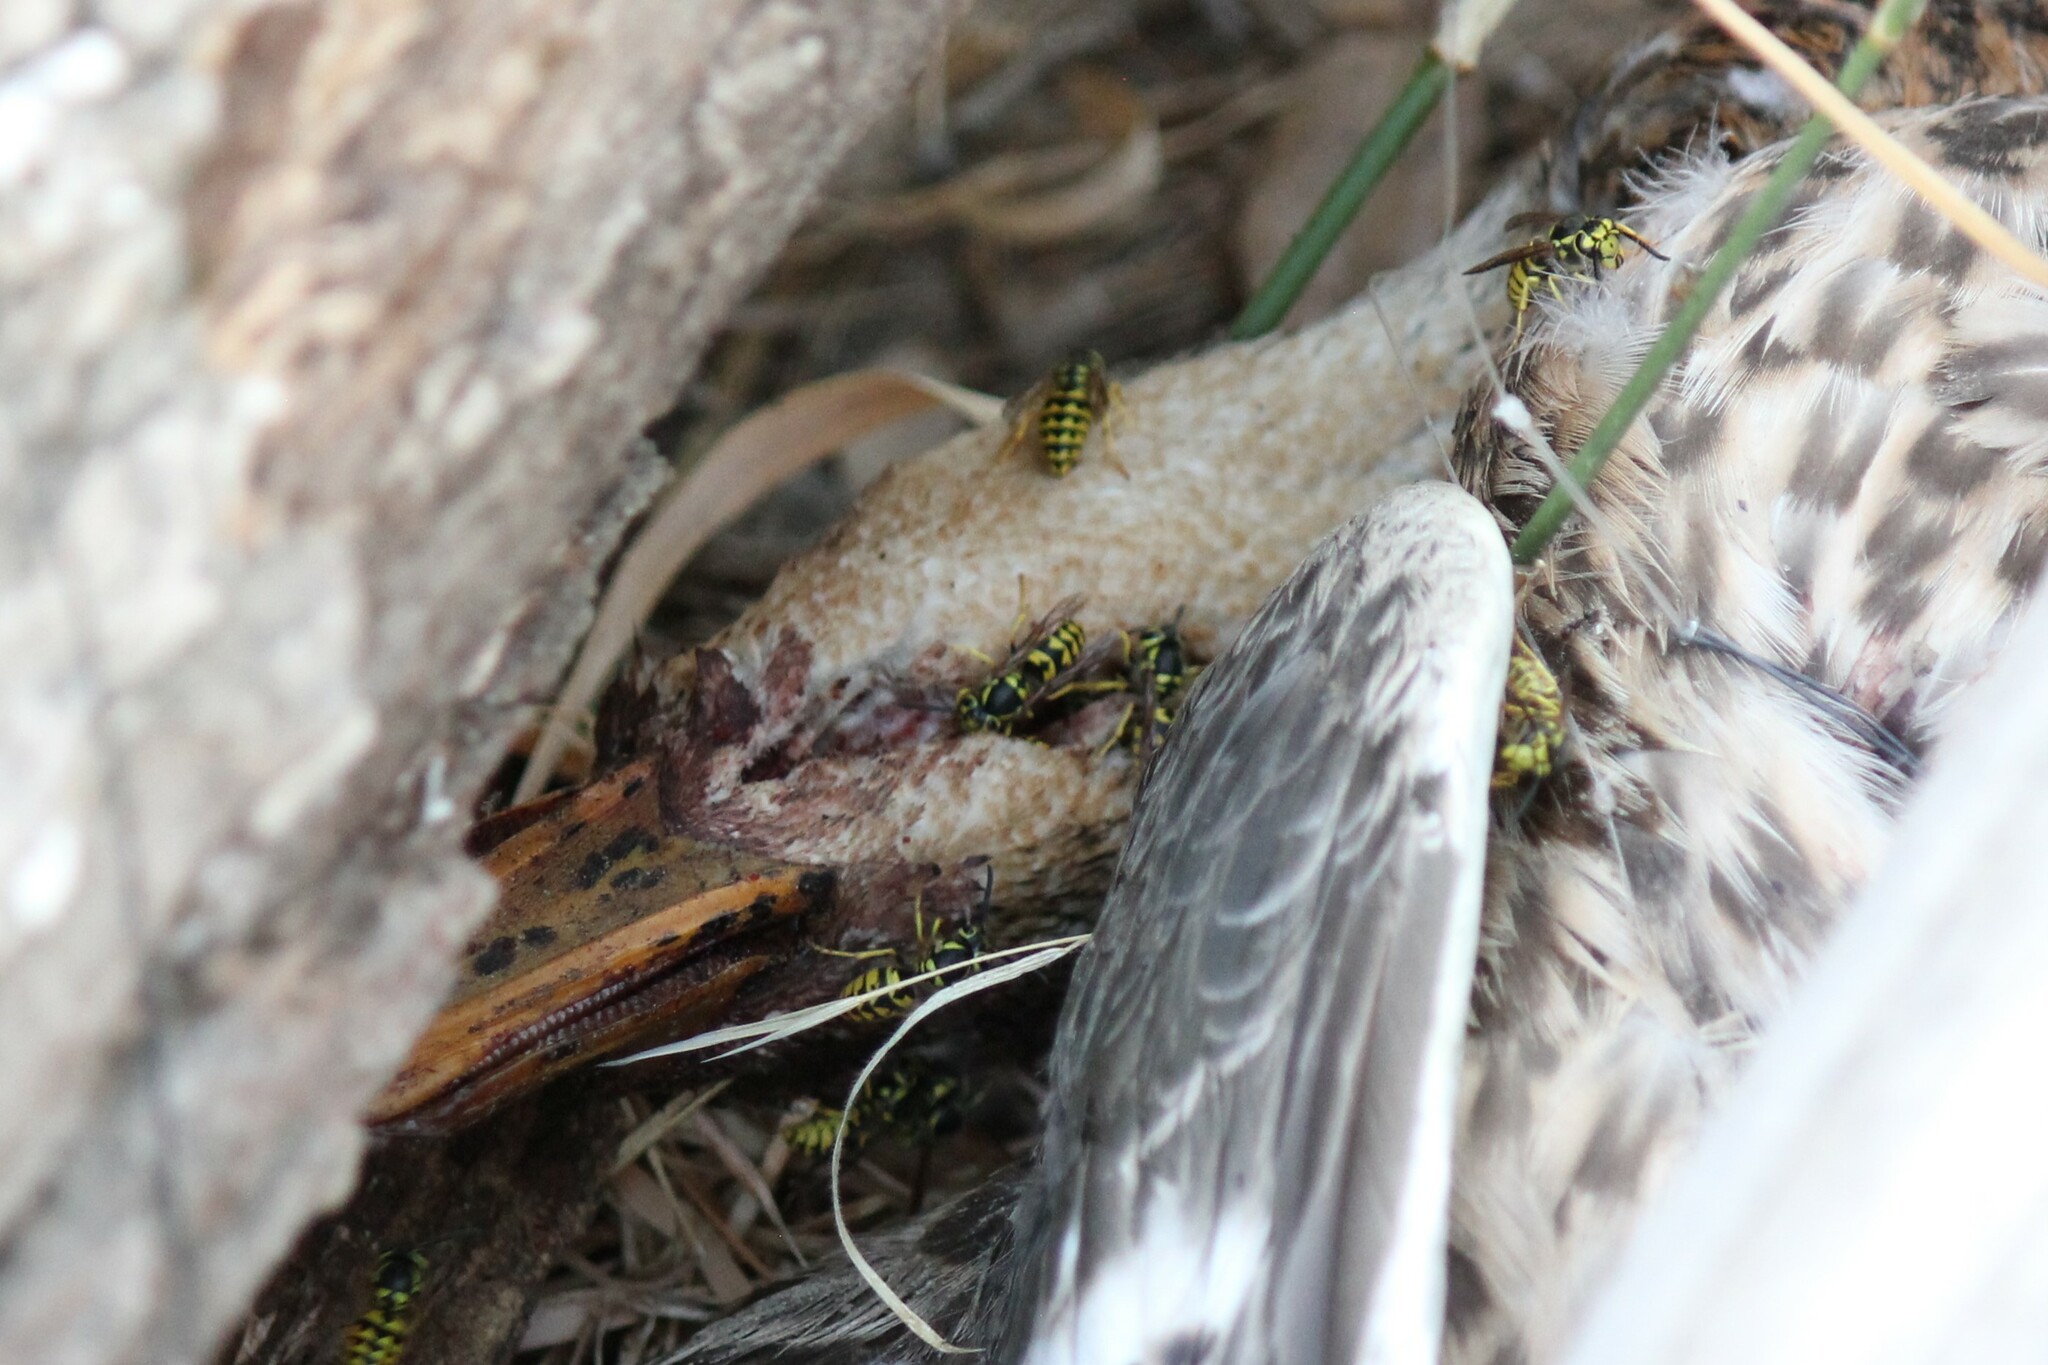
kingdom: Animalia
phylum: Arthropoda
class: Insecta
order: Hymenoptera
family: Vespidae
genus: Vespula
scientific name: Vespula pensylvanica
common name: Western yellowjacket
